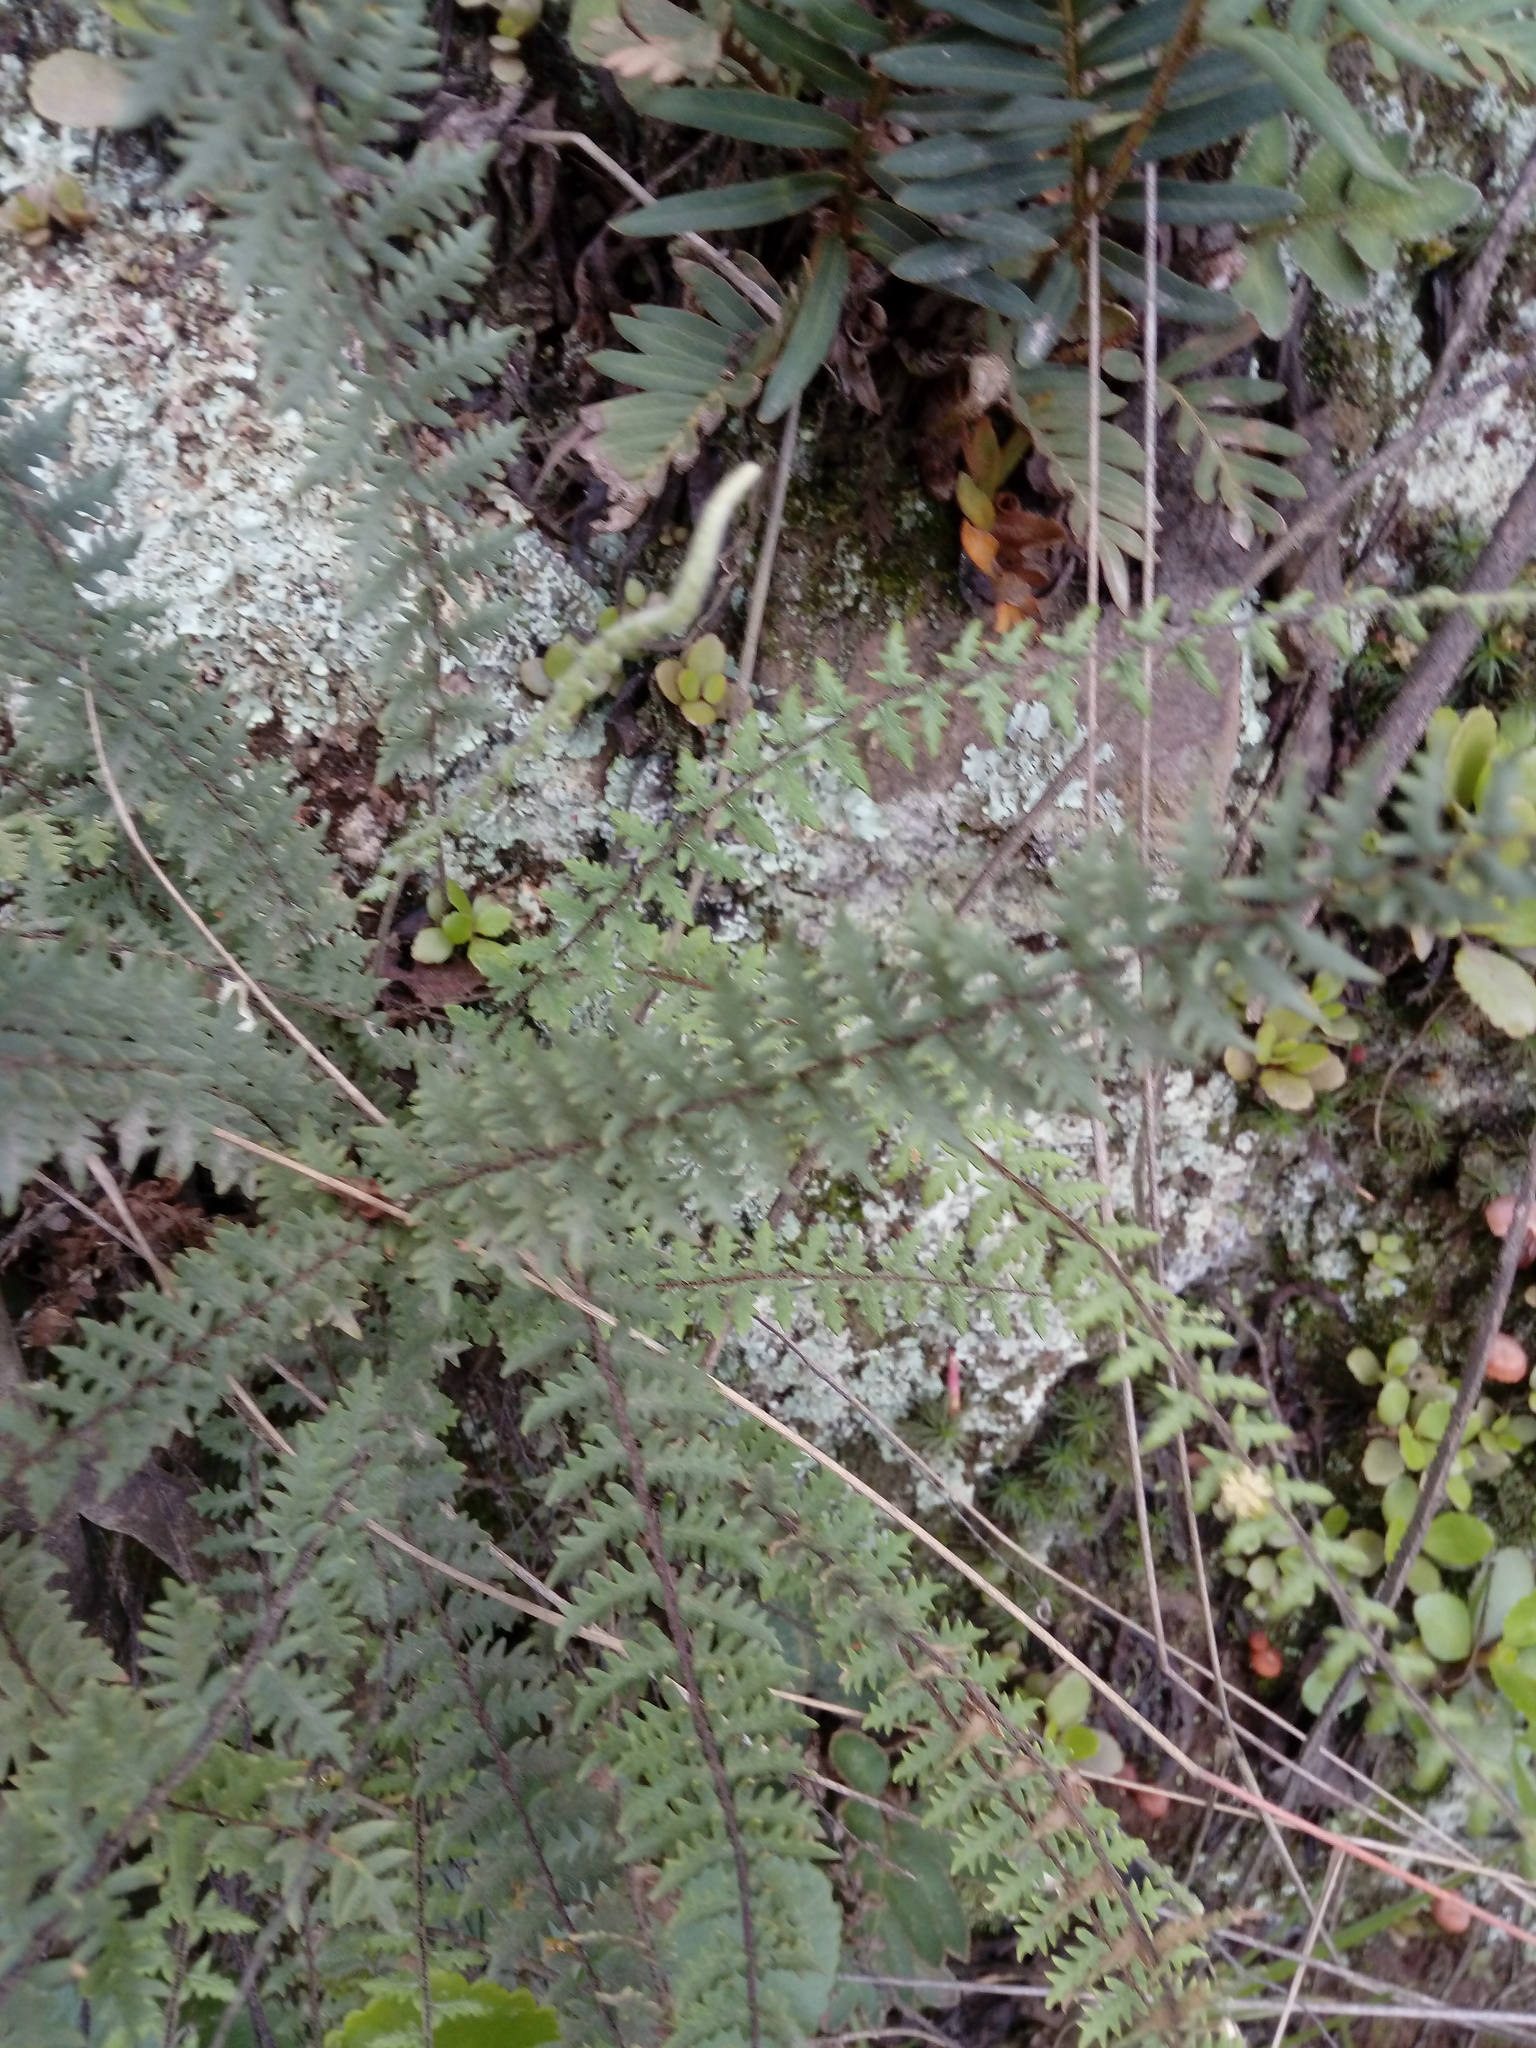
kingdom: Plantae
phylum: Tracheophyta
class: Polypodiopsida
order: Polypodiales
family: Pteridaceae
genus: Myriopteris
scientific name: Myriopteris aurea
